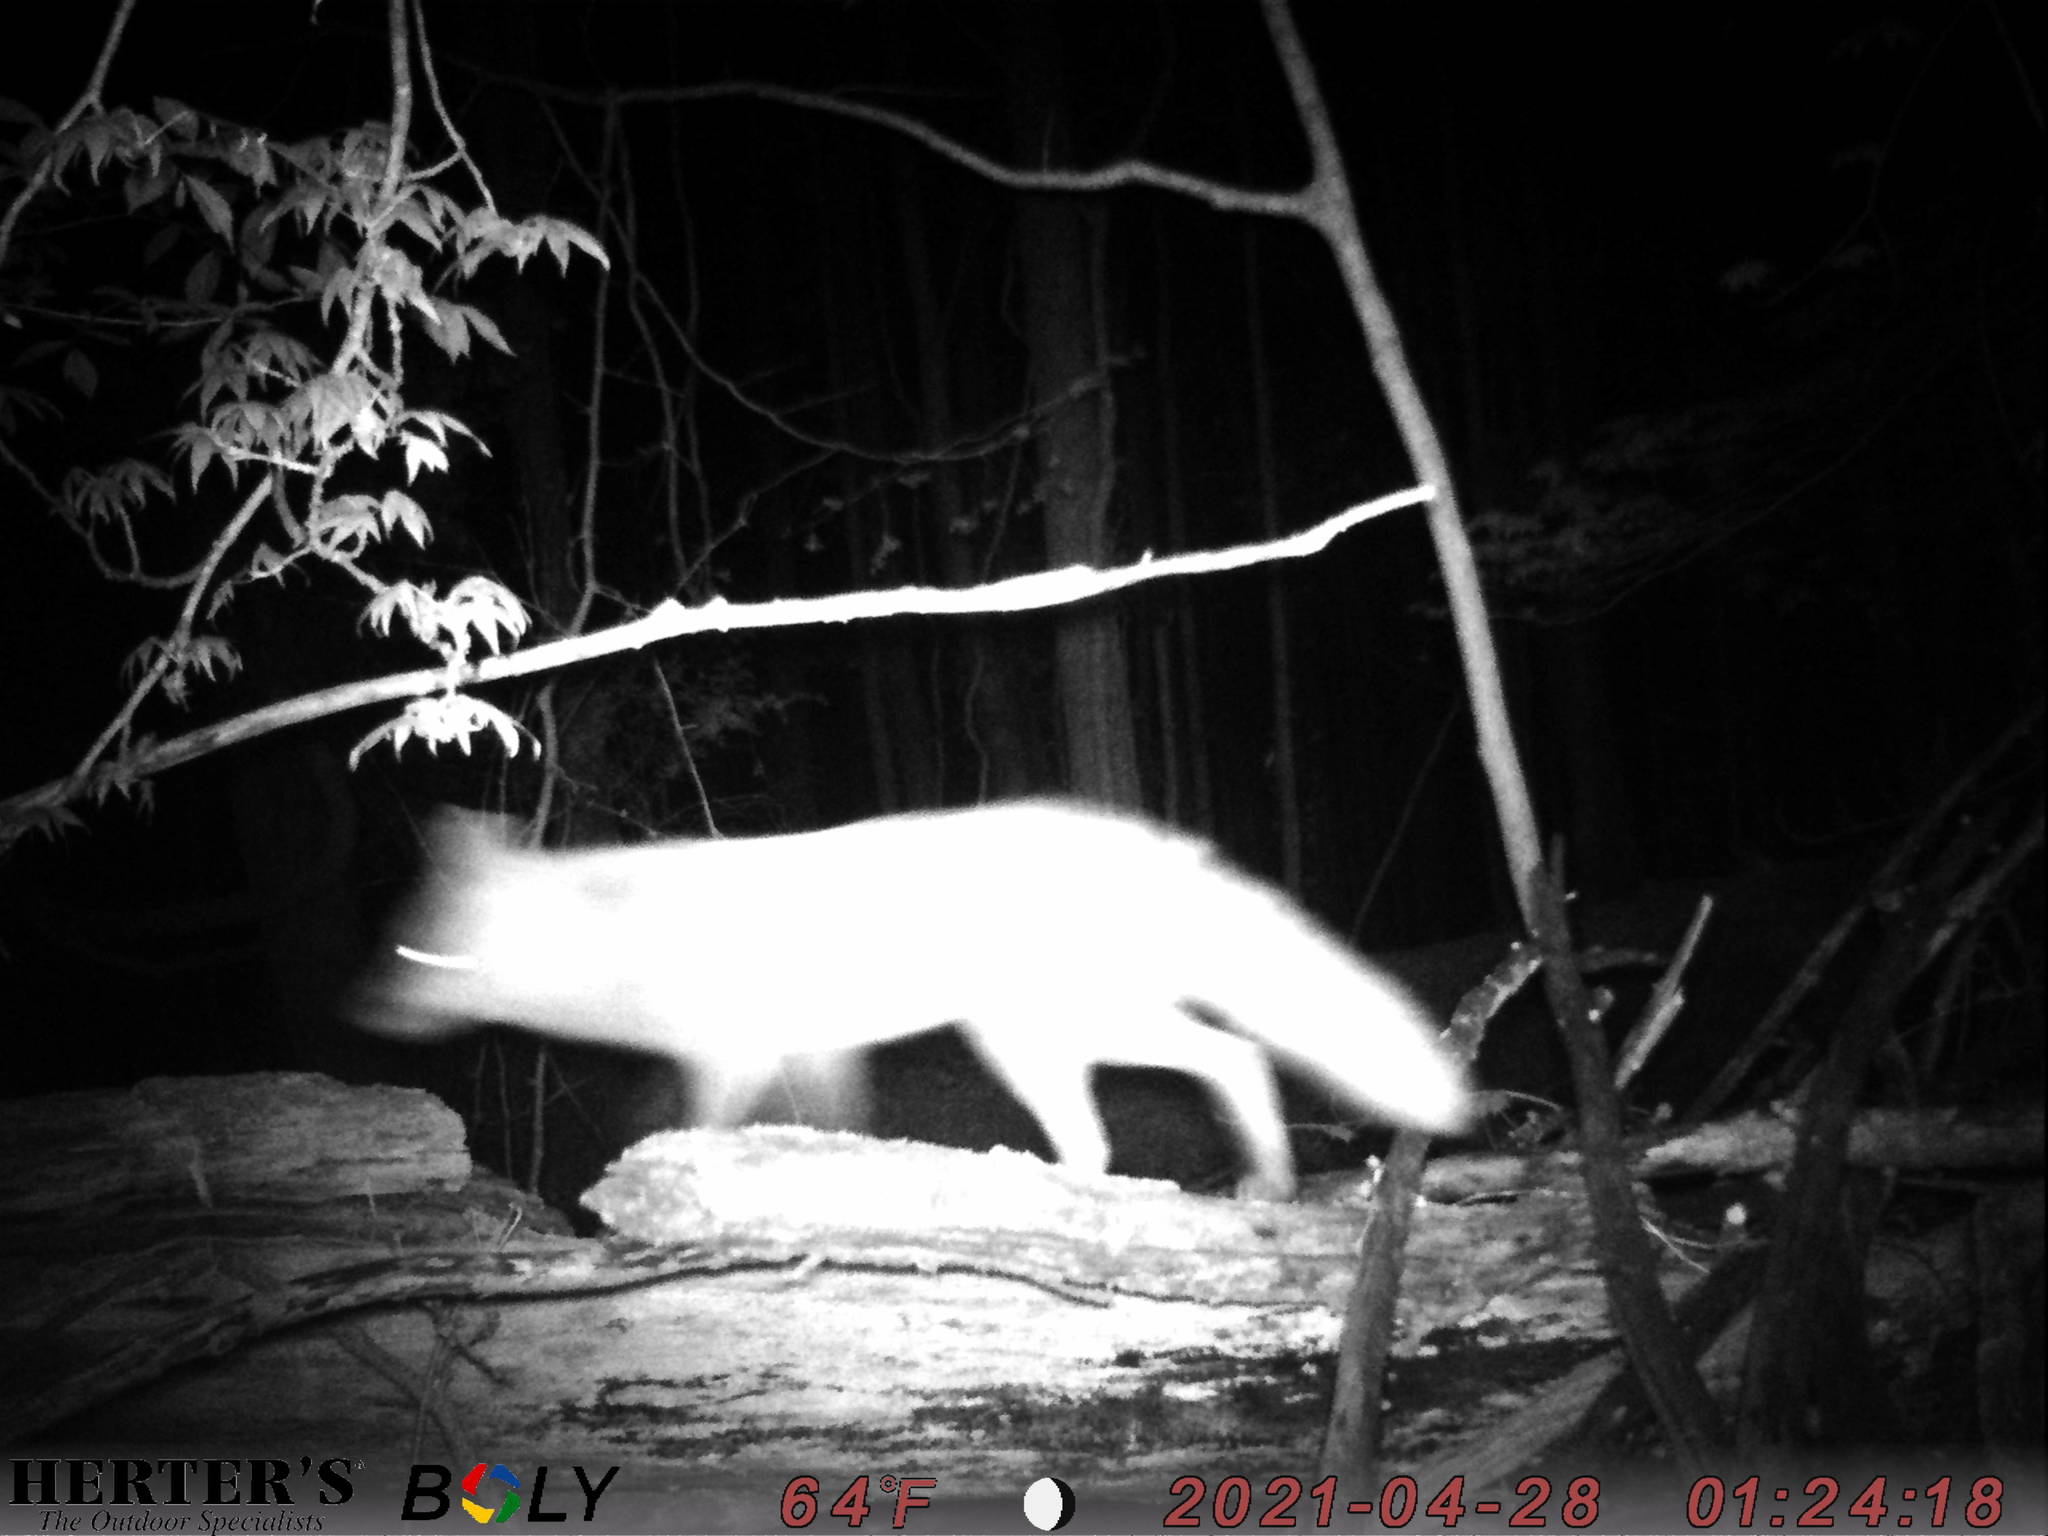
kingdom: Animalia
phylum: Chordata
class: Mammalia
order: Carnivora
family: Canidae
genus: Vulpes
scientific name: Vulpes vulpes
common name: Red fox
